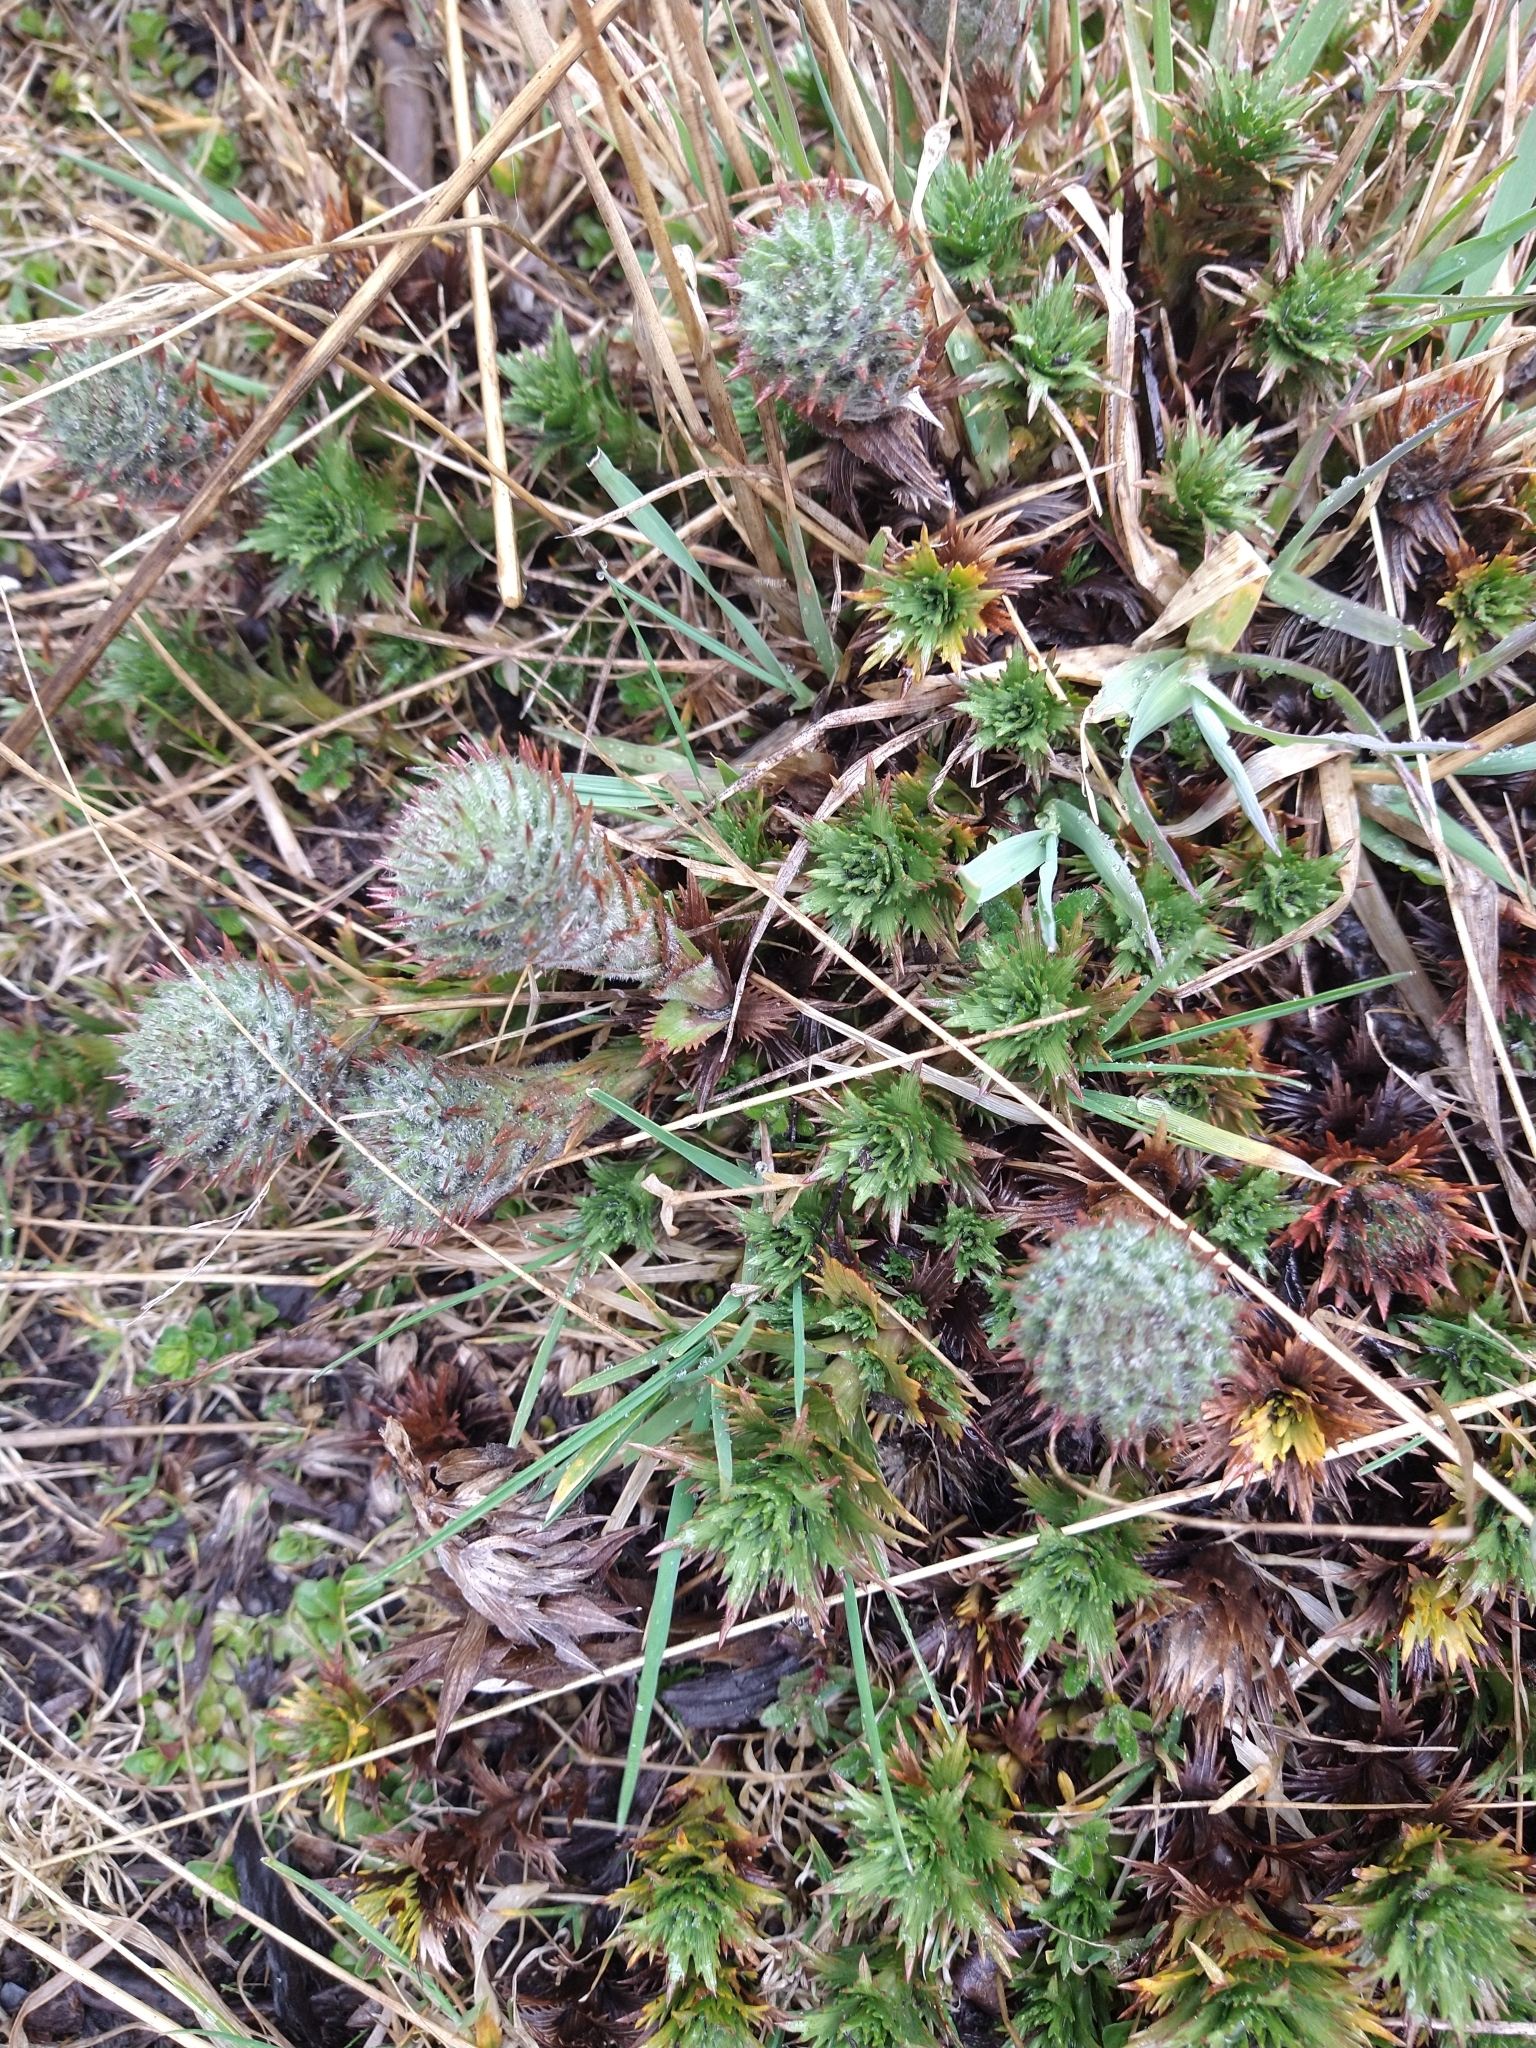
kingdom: Plantae
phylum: Tracheophyta
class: Magnoliopsida
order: Asterales
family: Asteraceae
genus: Nassauvia
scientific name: Nassauvia magellanica
